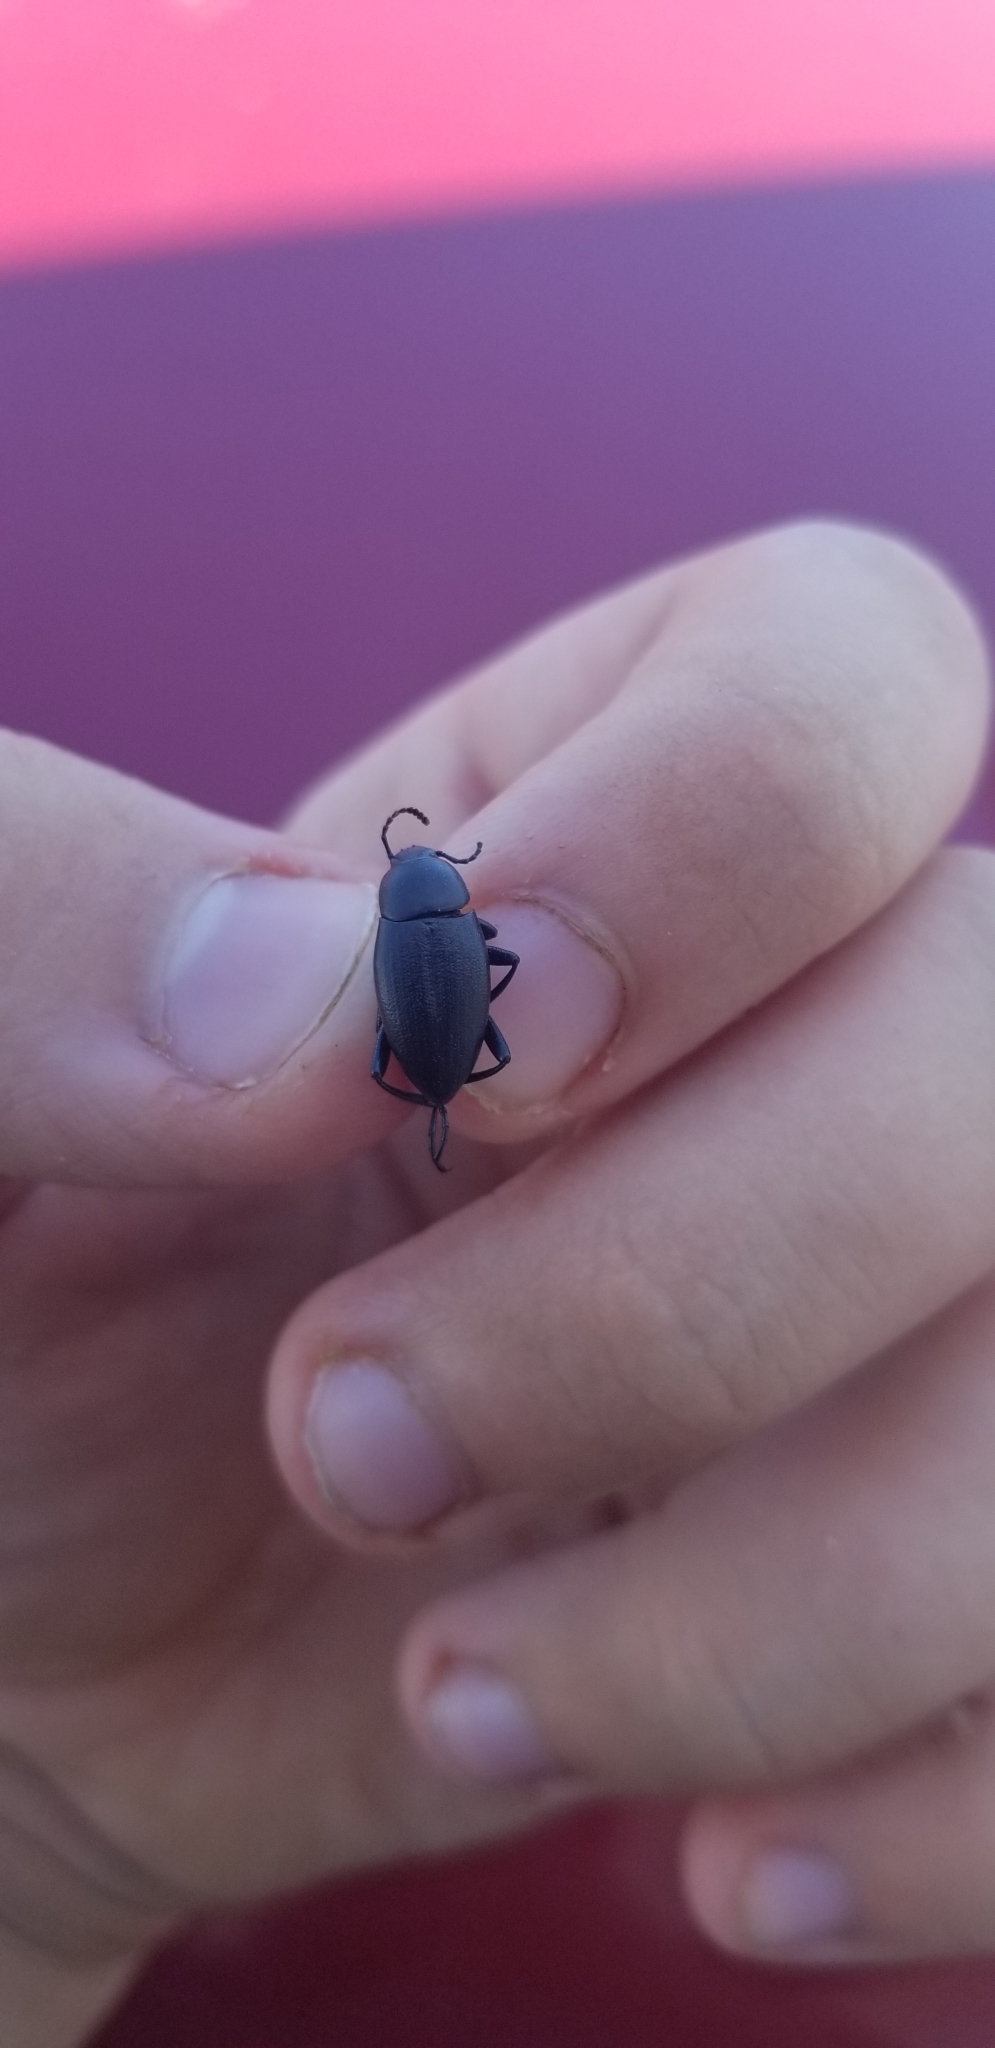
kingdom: Animalia
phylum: Arthropoda
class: Insecta
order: Coleoptera
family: Tenebrionidae
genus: Eleodes
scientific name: Eleodes fusiformis
